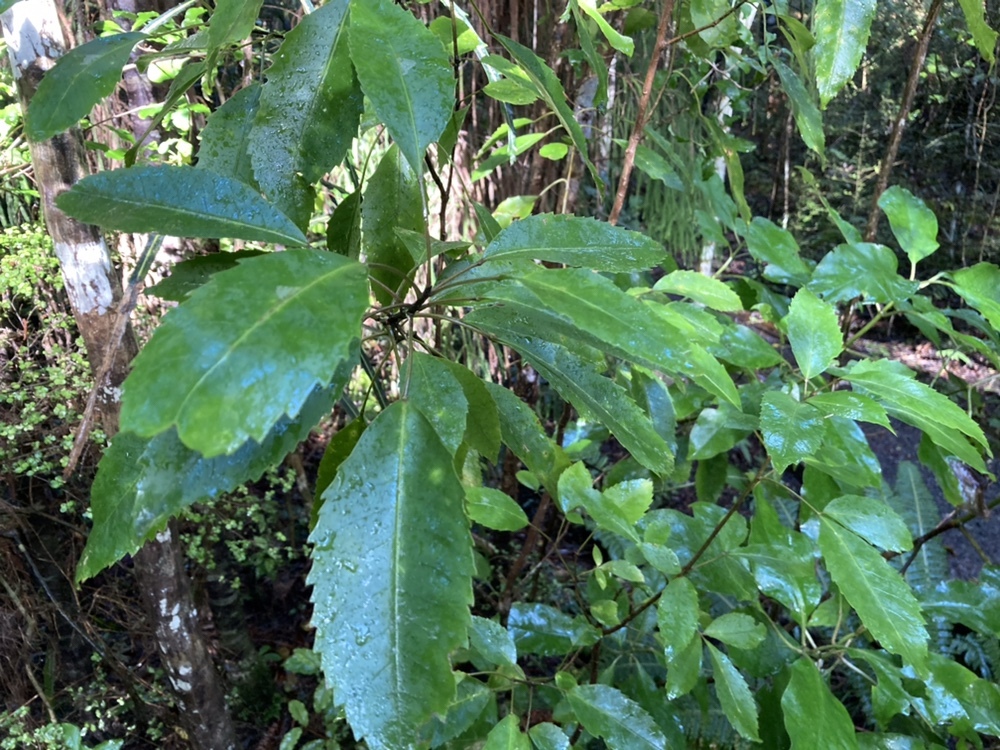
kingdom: Plantae
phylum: Tracheophyta
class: Magnoliopsida
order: Apiales
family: Araliaceae
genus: Raukaua
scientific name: Raukaua simplex
